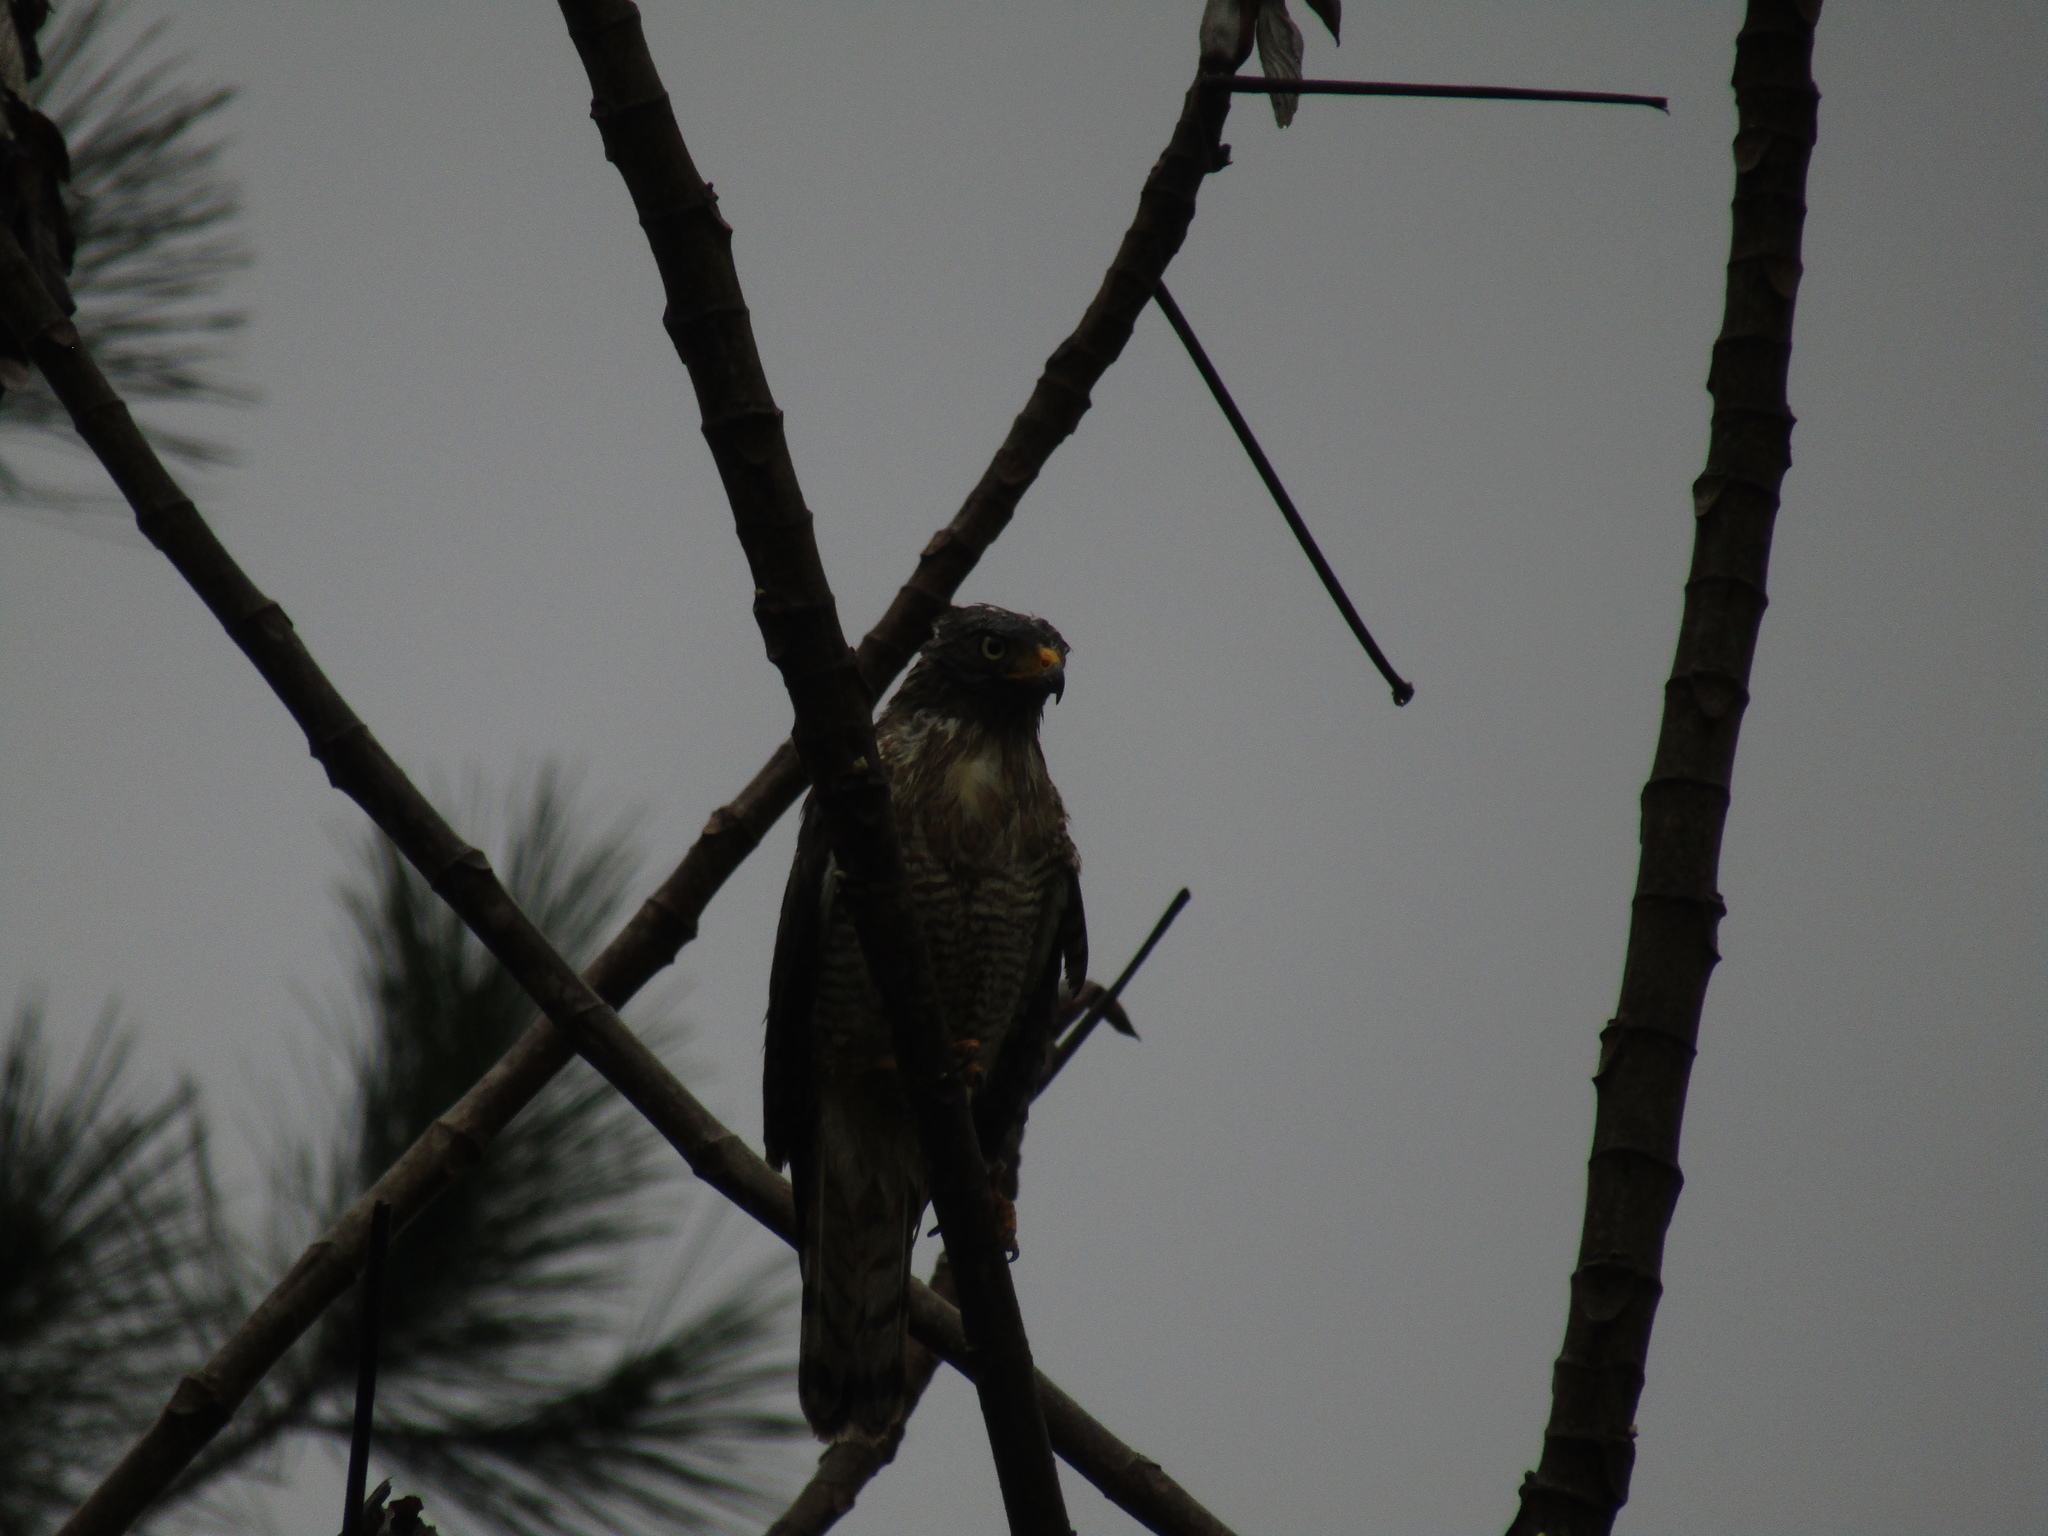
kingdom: Animalia
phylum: Chordata
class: Aves
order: Accipitriformes
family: Accipitridae
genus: Rupornis
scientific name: Rupornis magnirostris
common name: Roadside hawk
